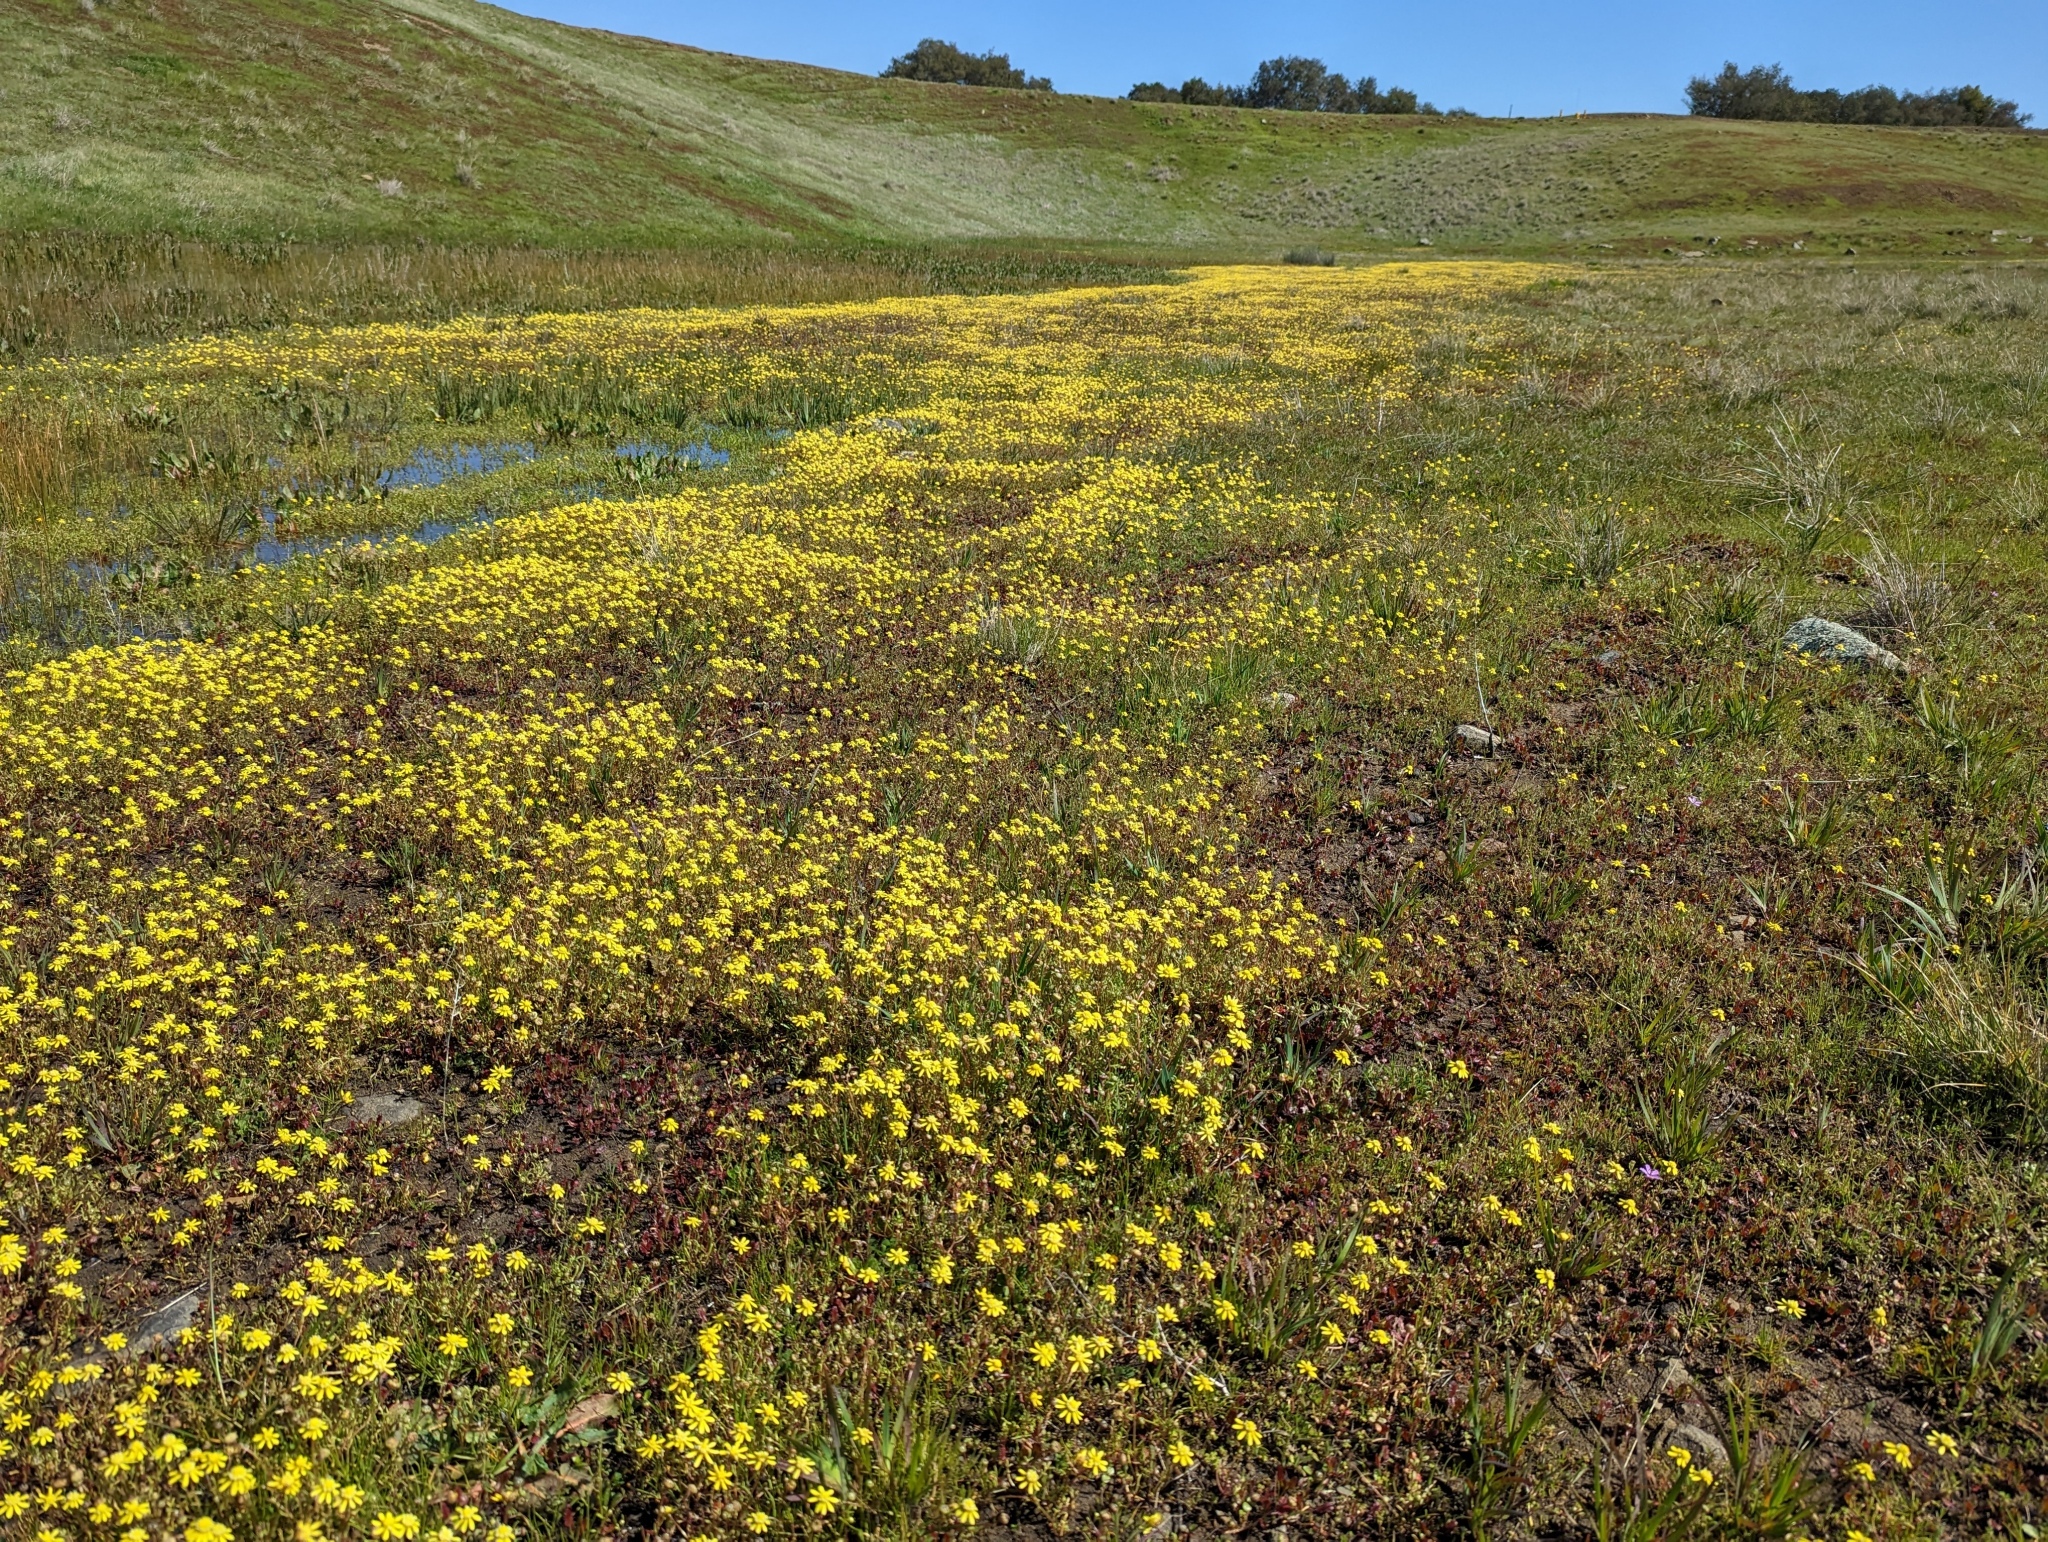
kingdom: Plantae
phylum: Tracheophyta
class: Magnoliopsida
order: Asterales
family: Asteraceae
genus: Blennosperma
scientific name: Blennosperma nanum
